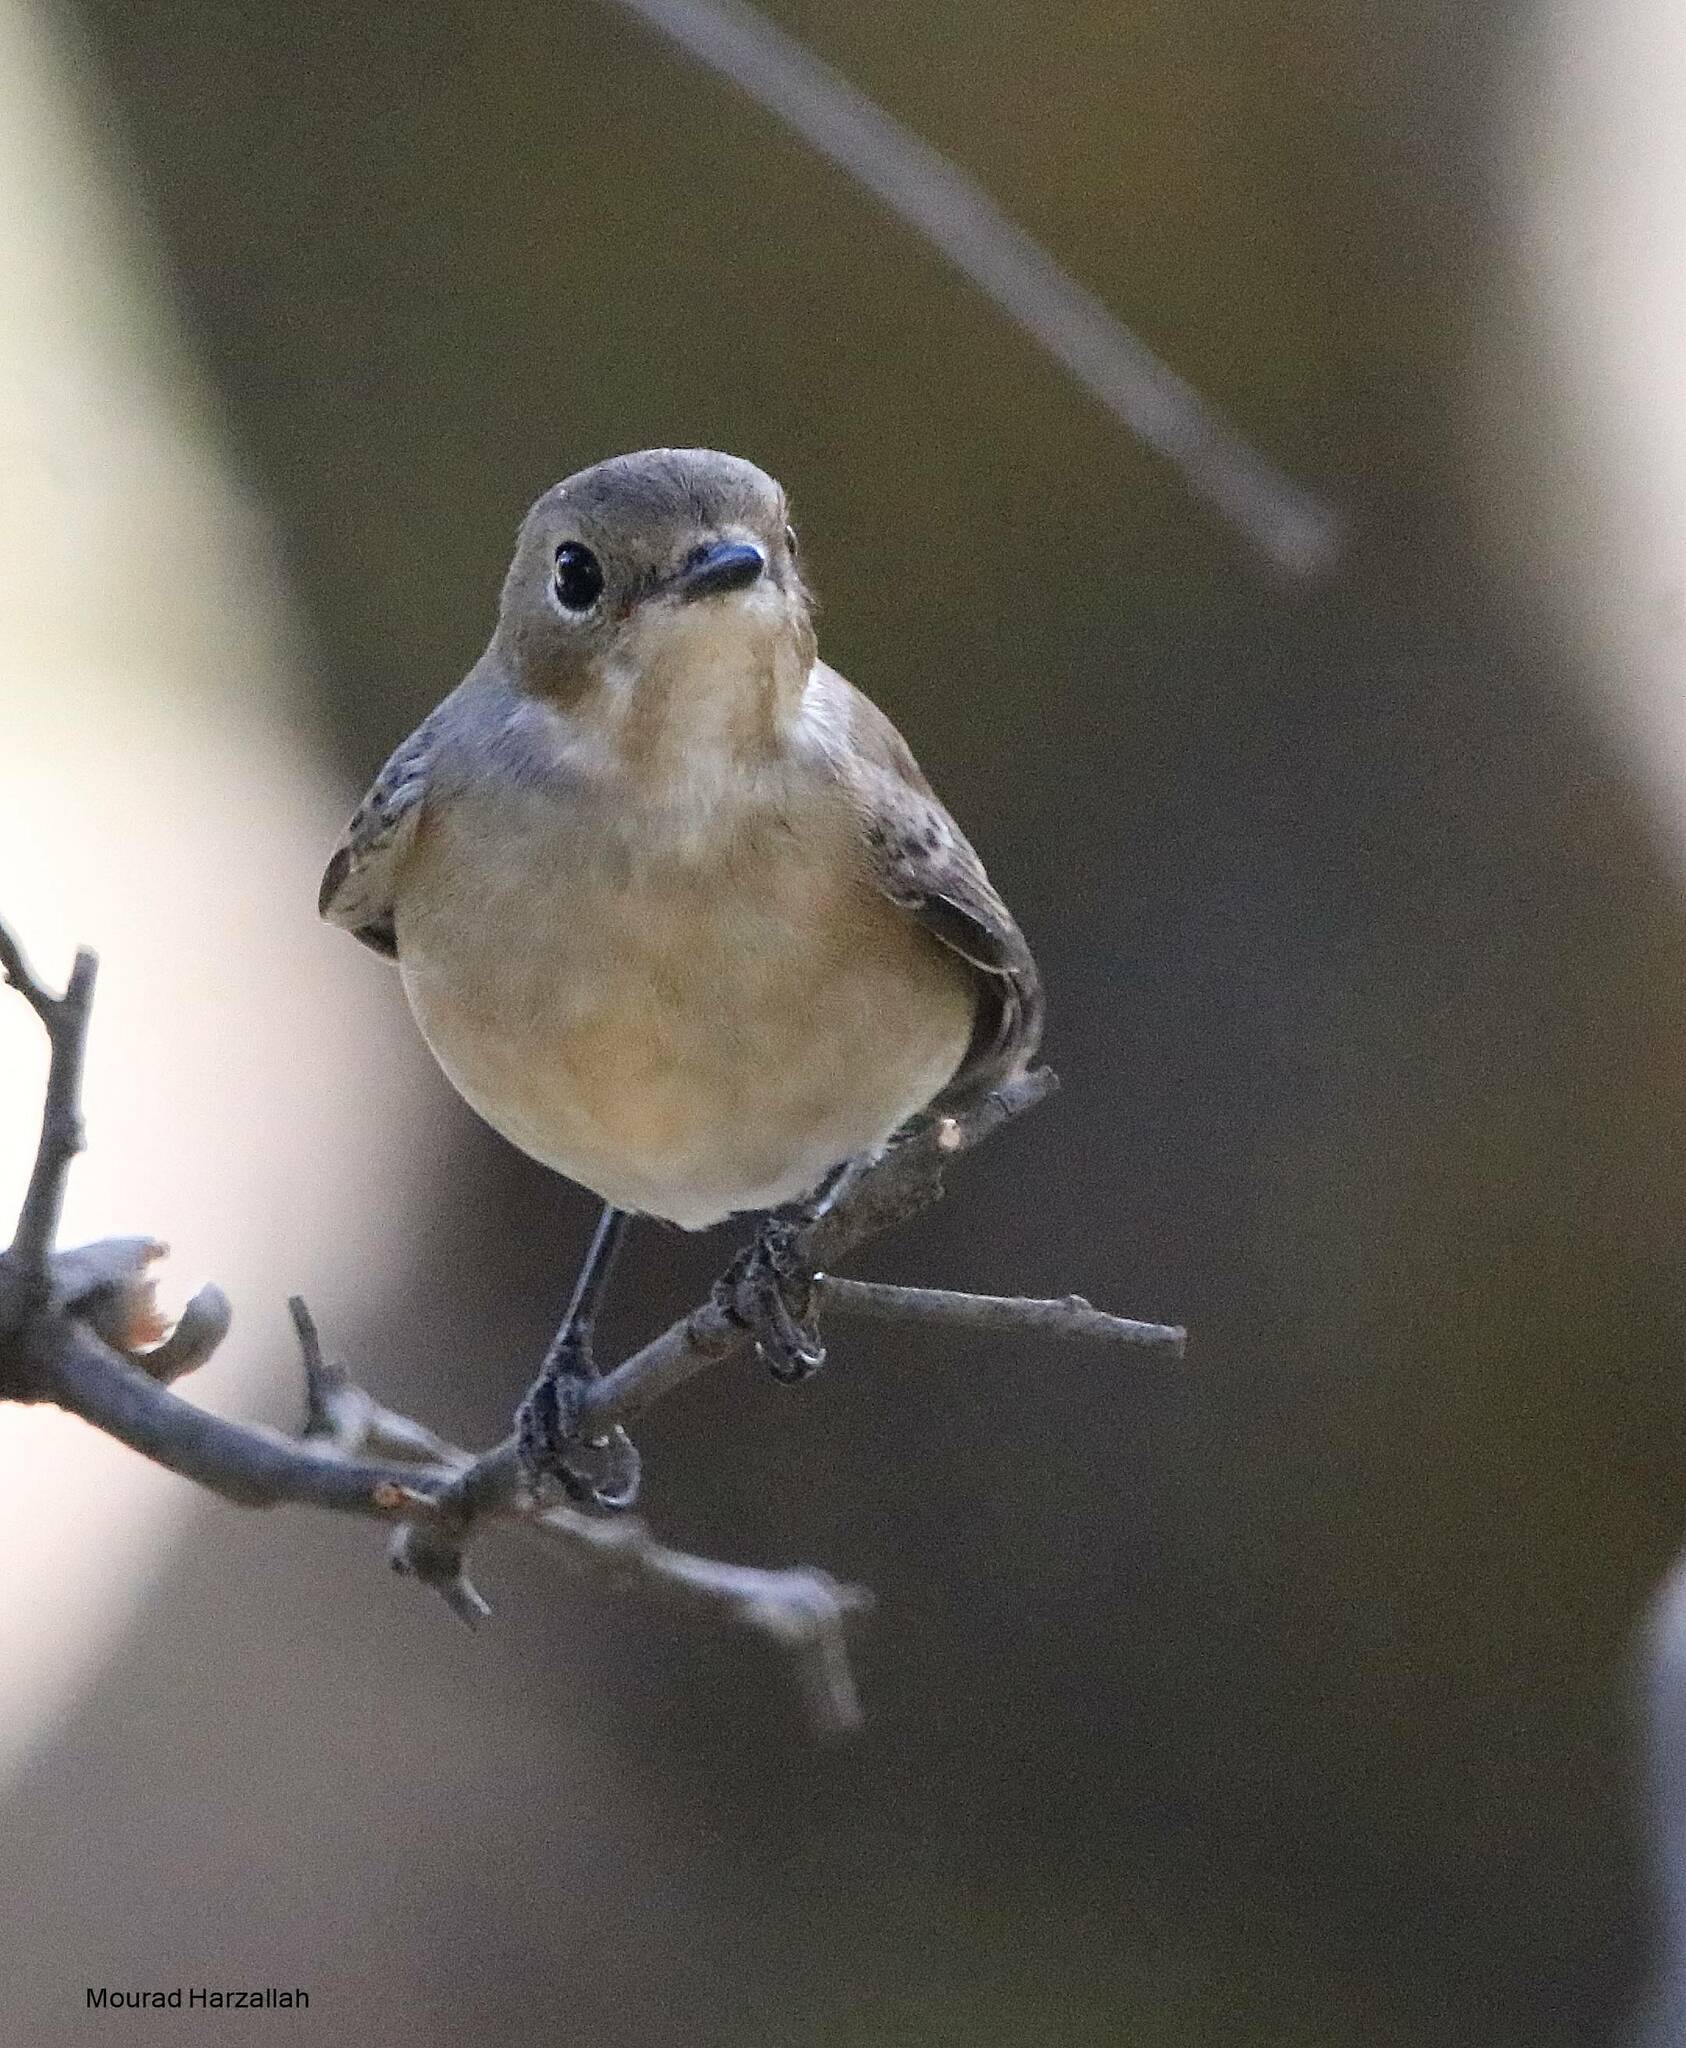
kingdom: Animalia
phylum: Chordata
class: Aves
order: Passeriformes
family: Muscicapidae
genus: Ficedula
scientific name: Ficedula speculigera
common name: Atlas pied flycatcher
